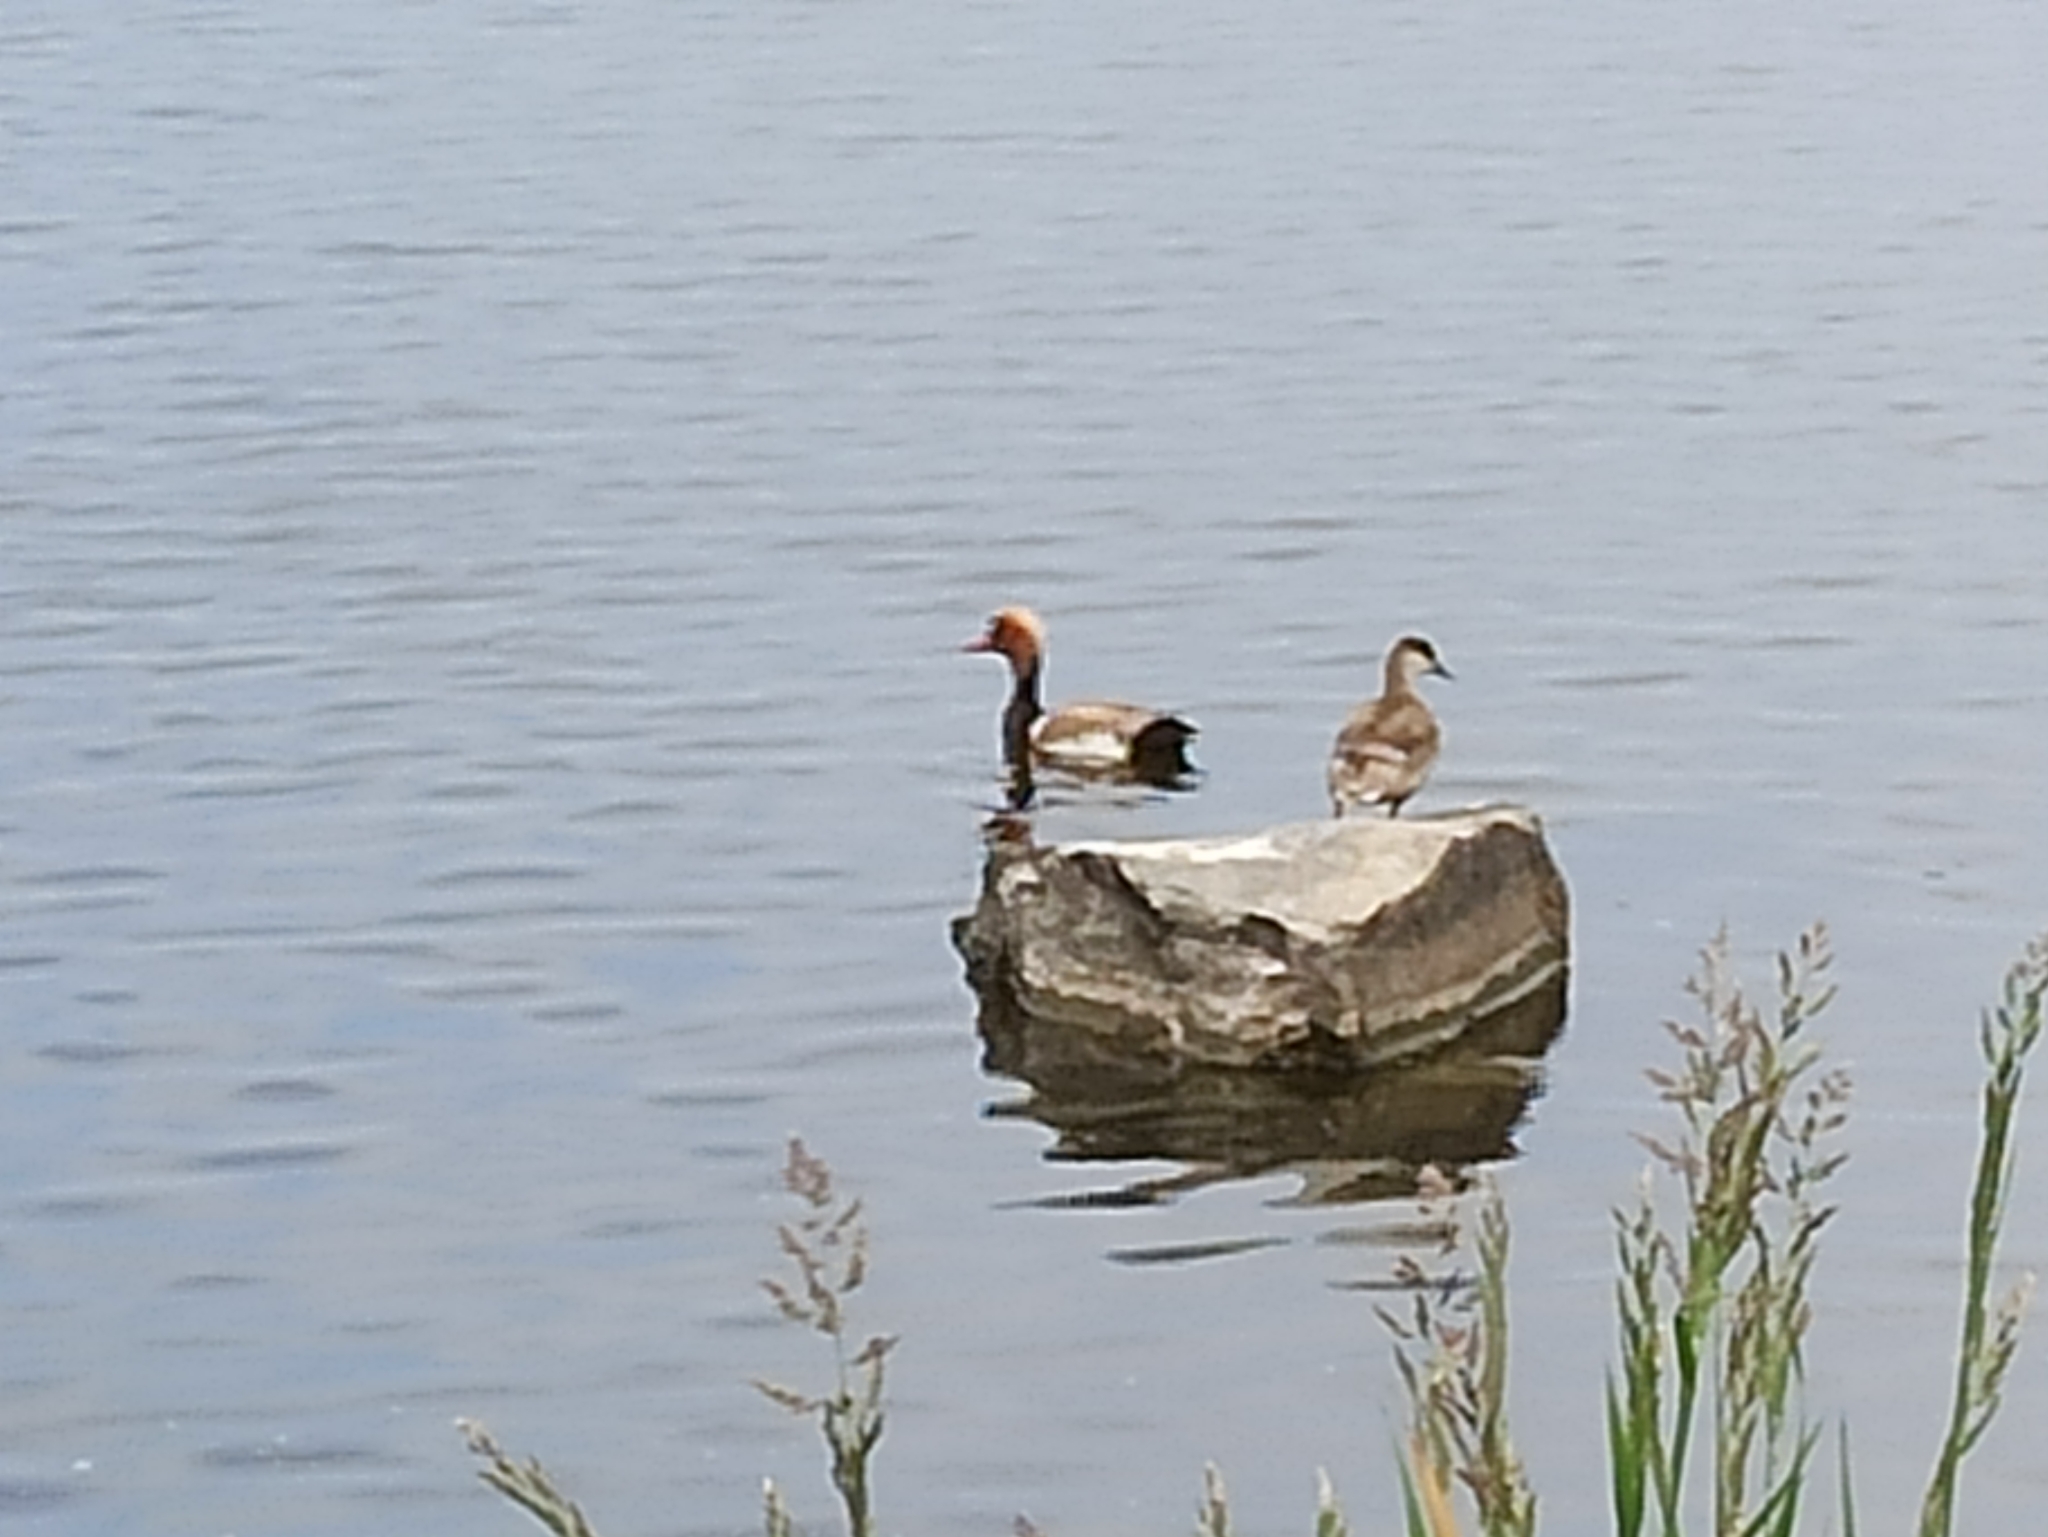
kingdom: Animalia
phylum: Chordata
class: Aves
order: Anseriformes
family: Anatidae
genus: Netta
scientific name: Netta rufina
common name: Red-crested pochard
